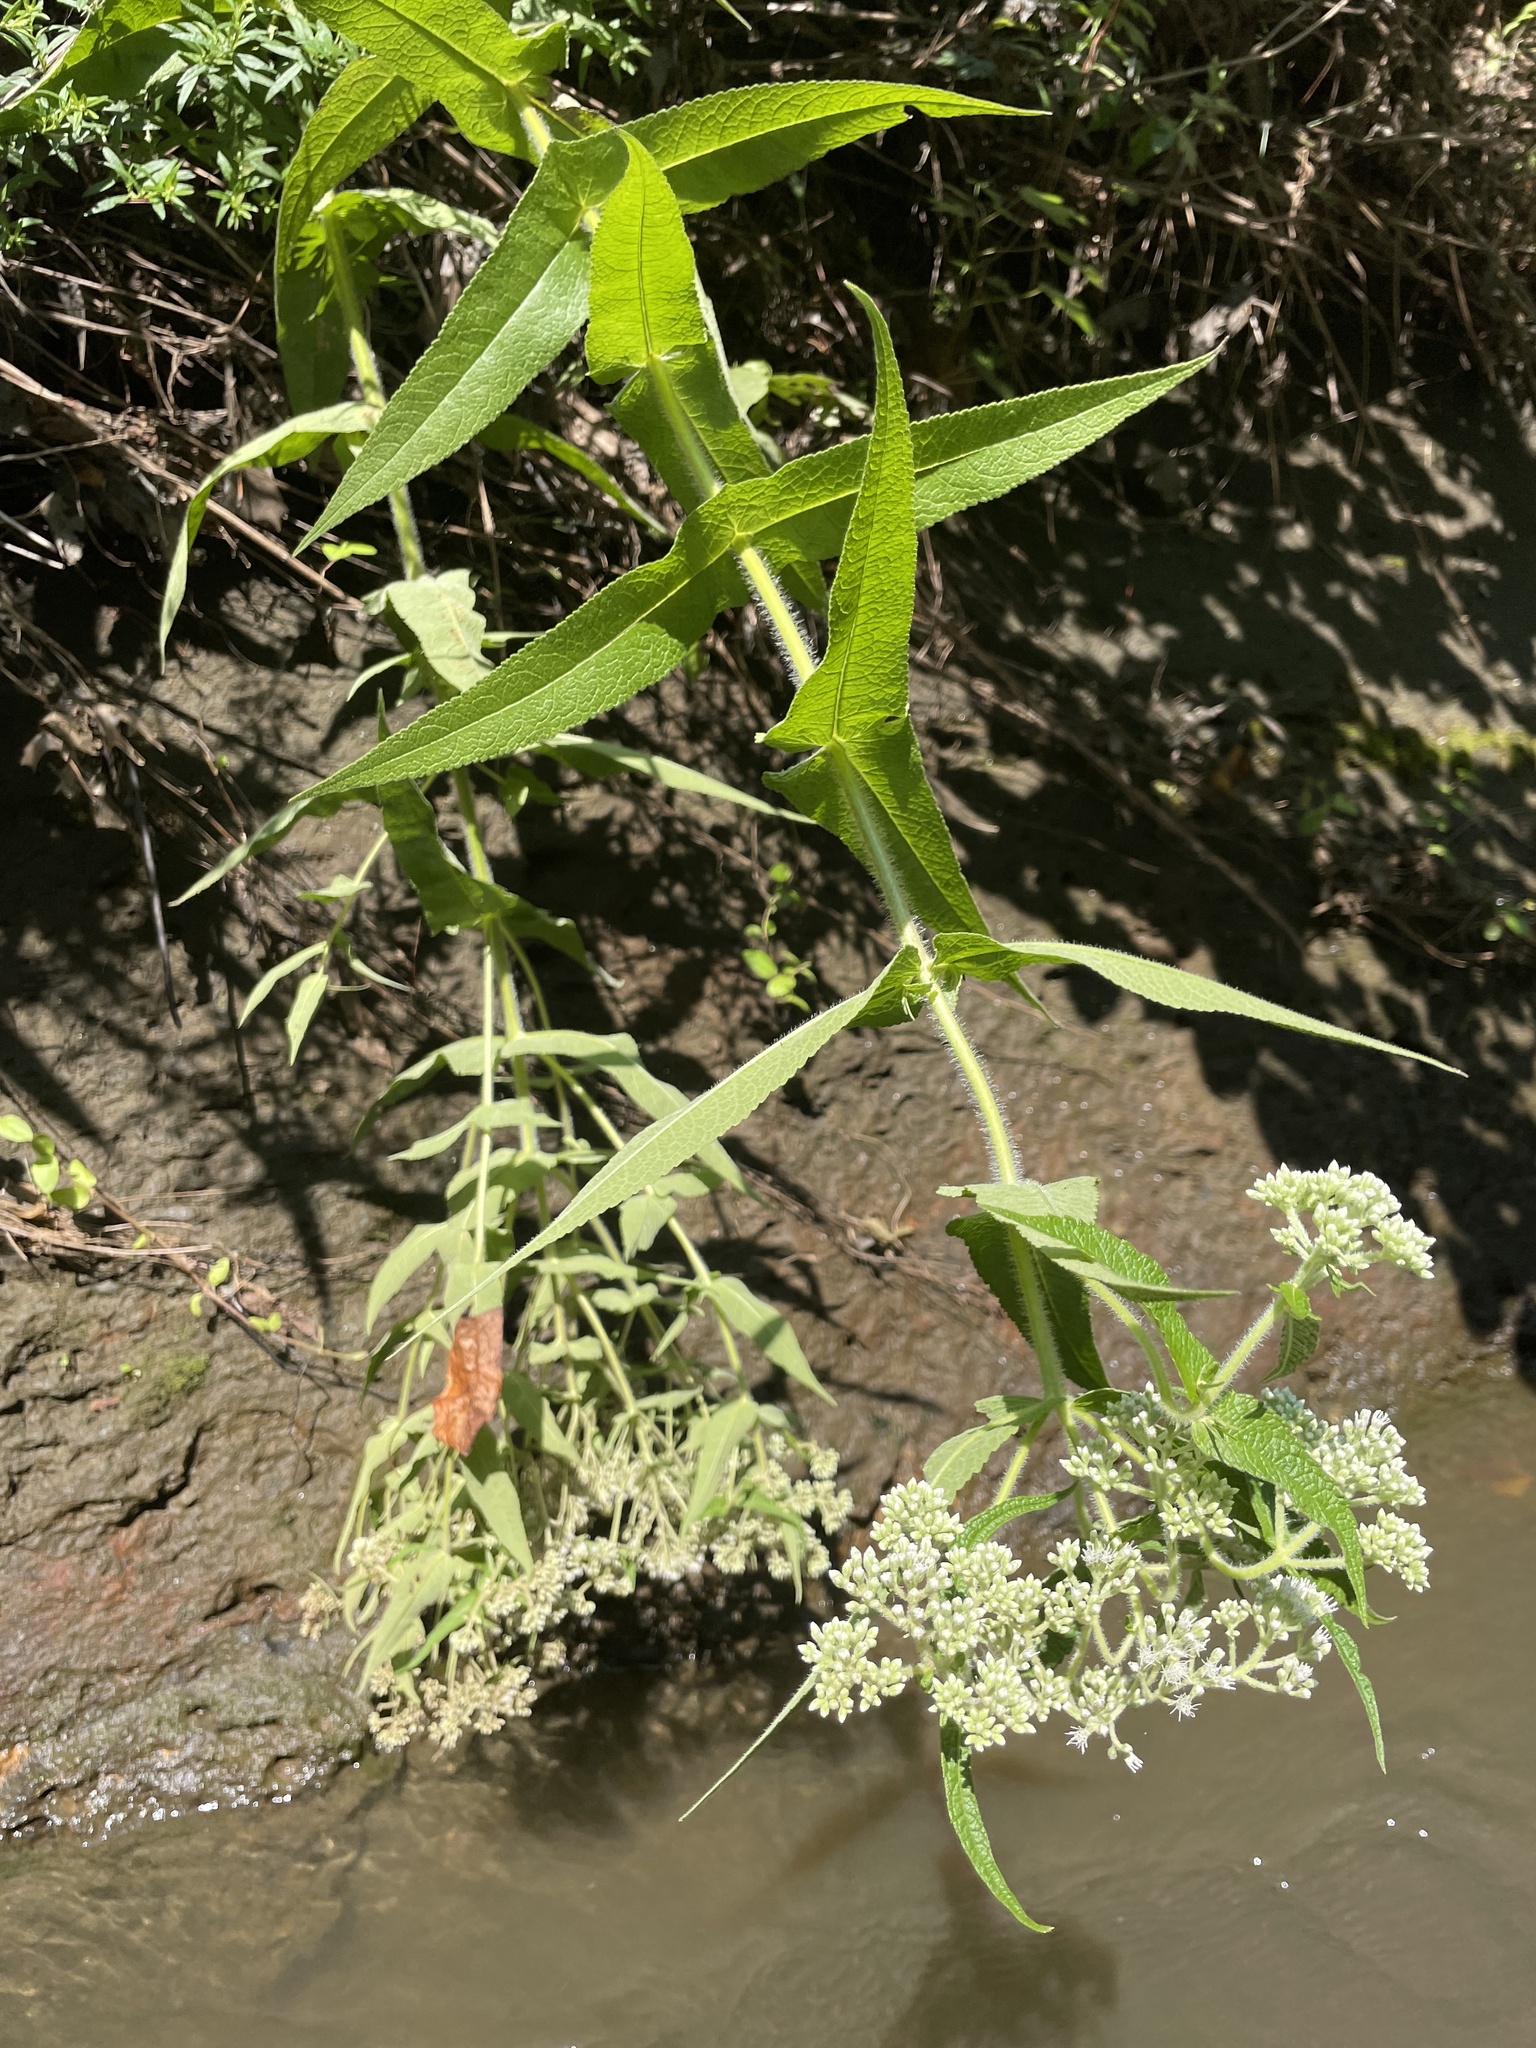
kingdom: Plantae
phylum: Tracheophyta
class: Magnoliopsida
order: Asterales
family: Asteraceae
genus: Eupatorium
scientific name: Eupatorium perfoliatum
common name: Boneset
